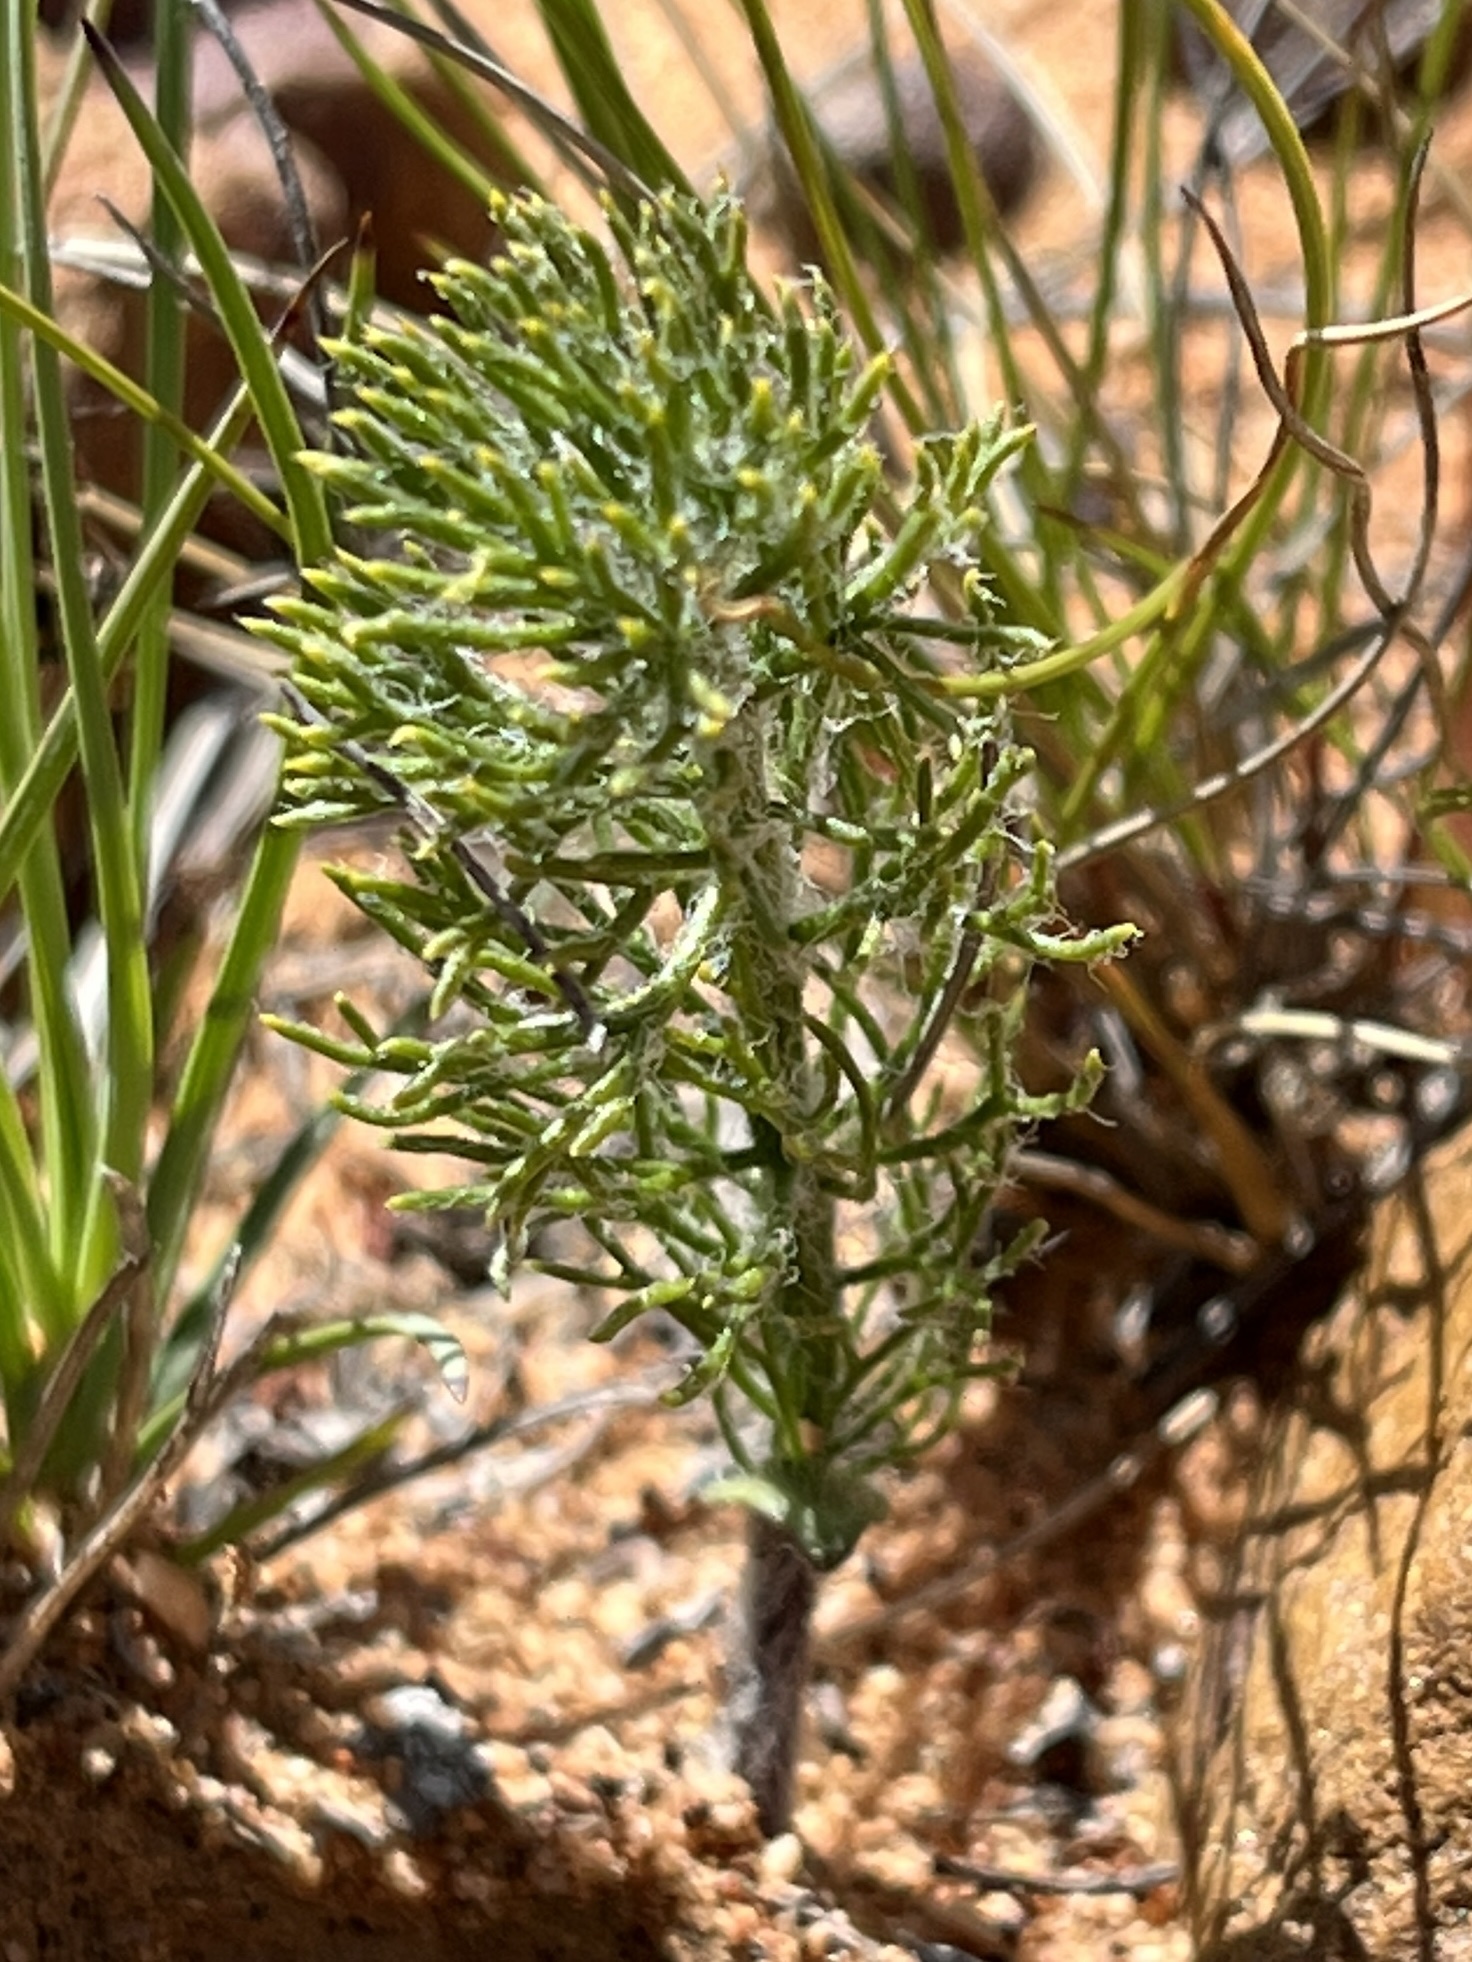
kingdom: Plantae
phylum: Tracheophyta
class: Liliopsida
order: Asparagales
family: Asparagaceae
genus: Eriospermum
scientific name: Eriospermum paradoxum
